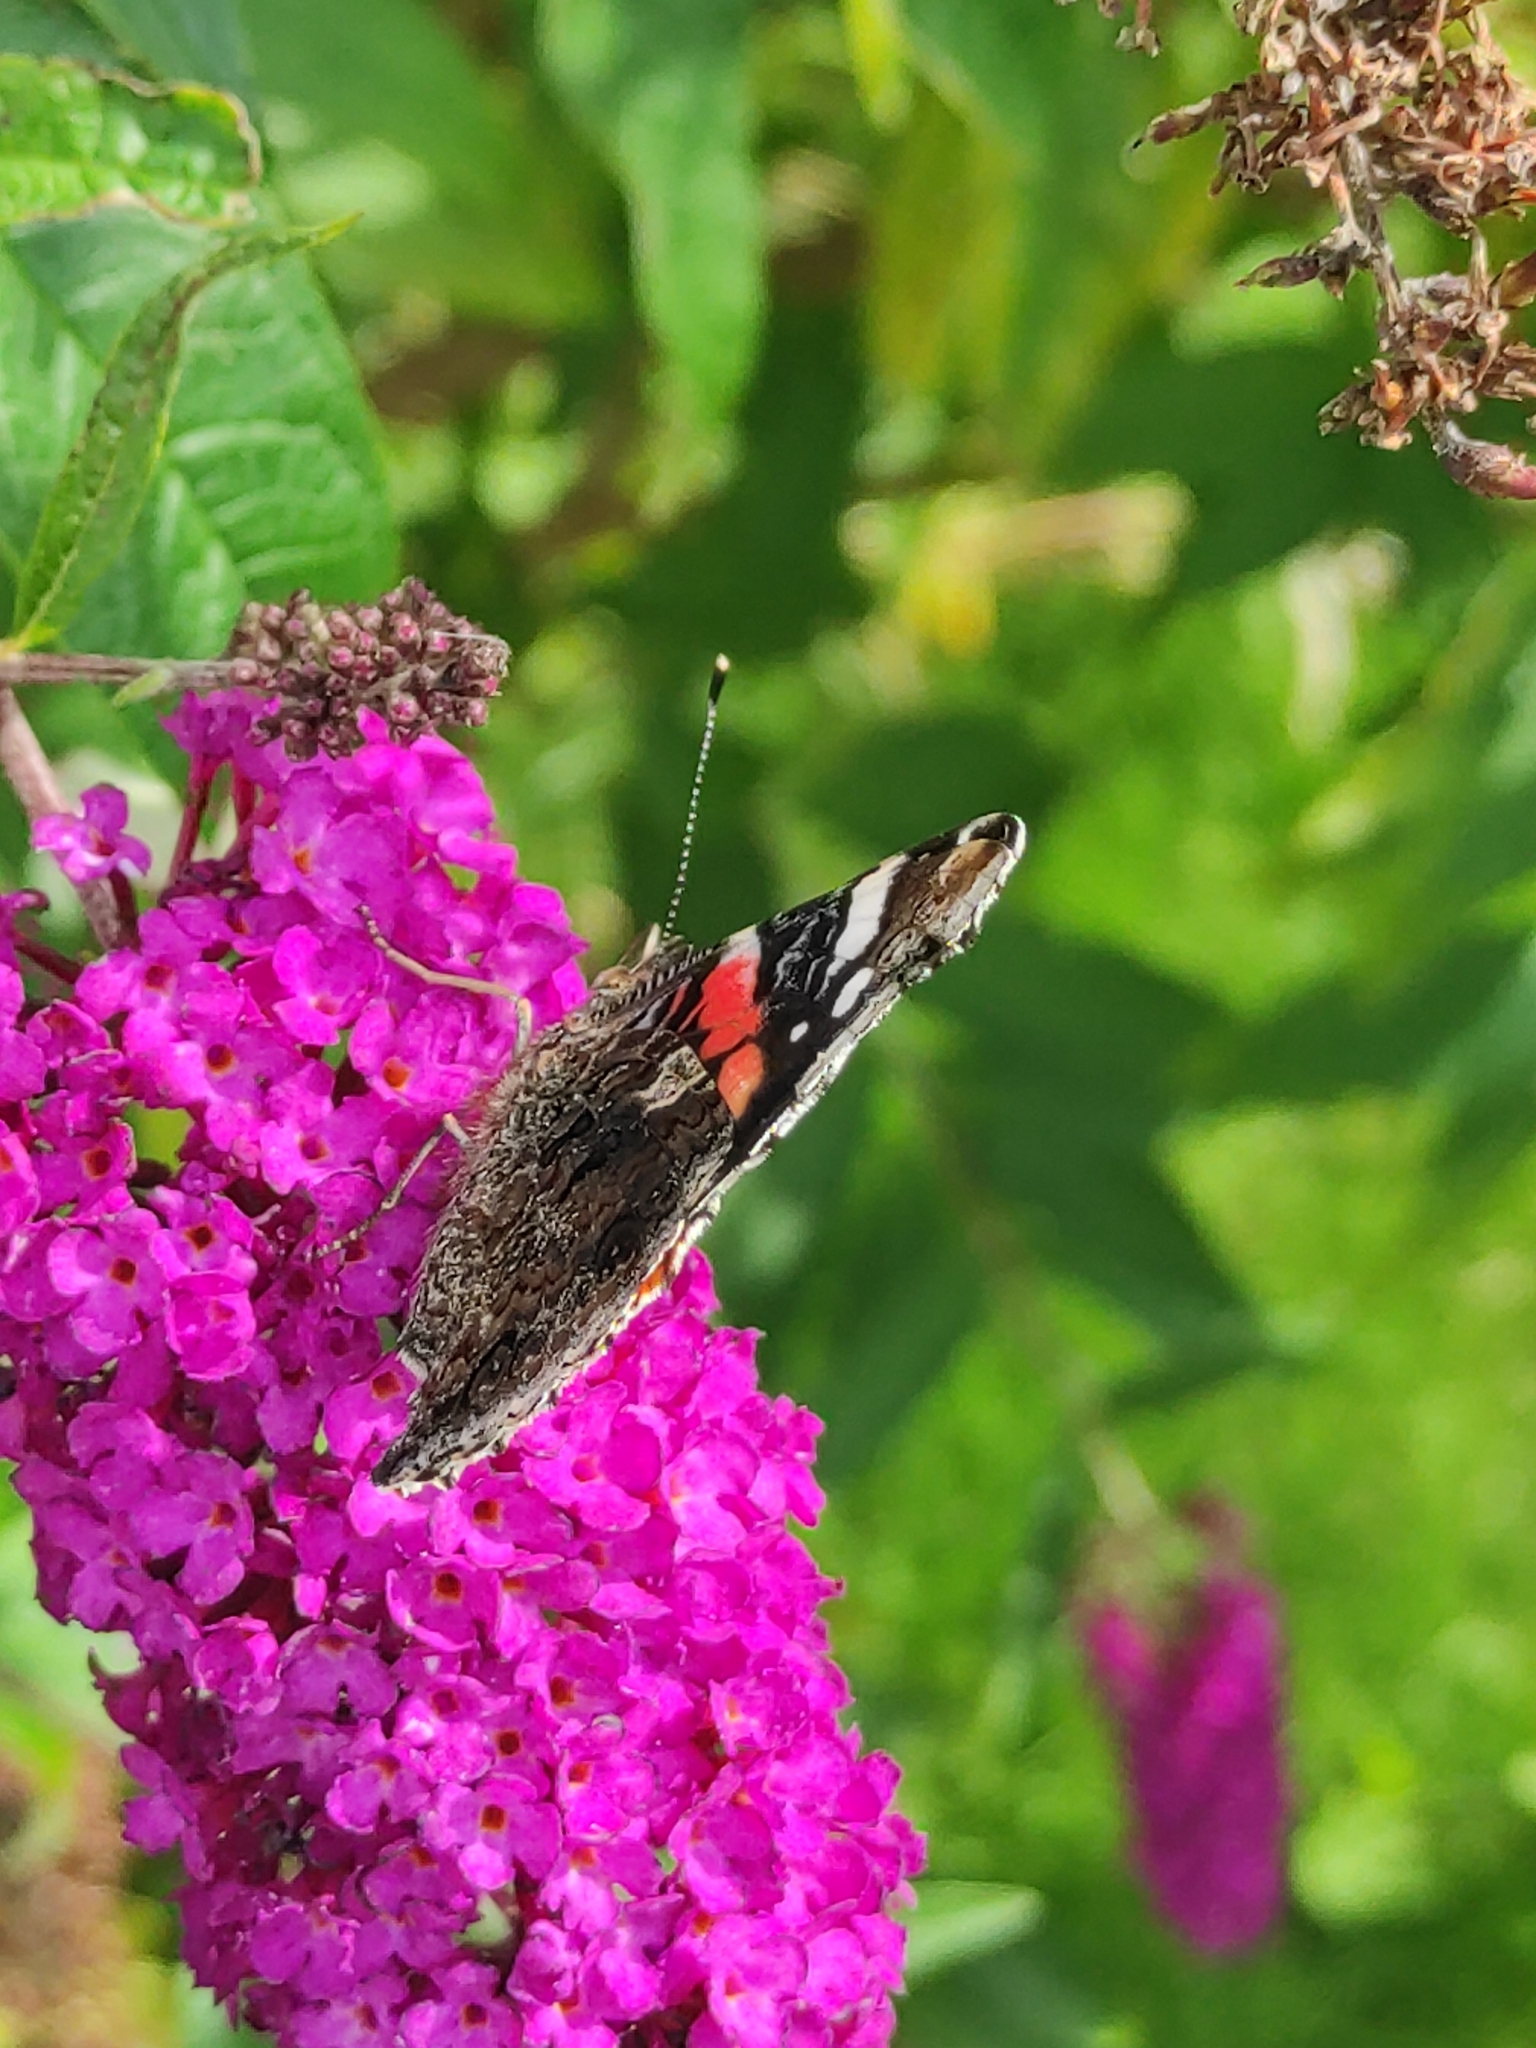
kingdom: Animalia
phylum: Arthropoda
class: Insecta
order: Lepidoptera
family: Nymphalidae
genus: Vanessa
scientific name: Vanessa atalanta
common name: Red admiral
